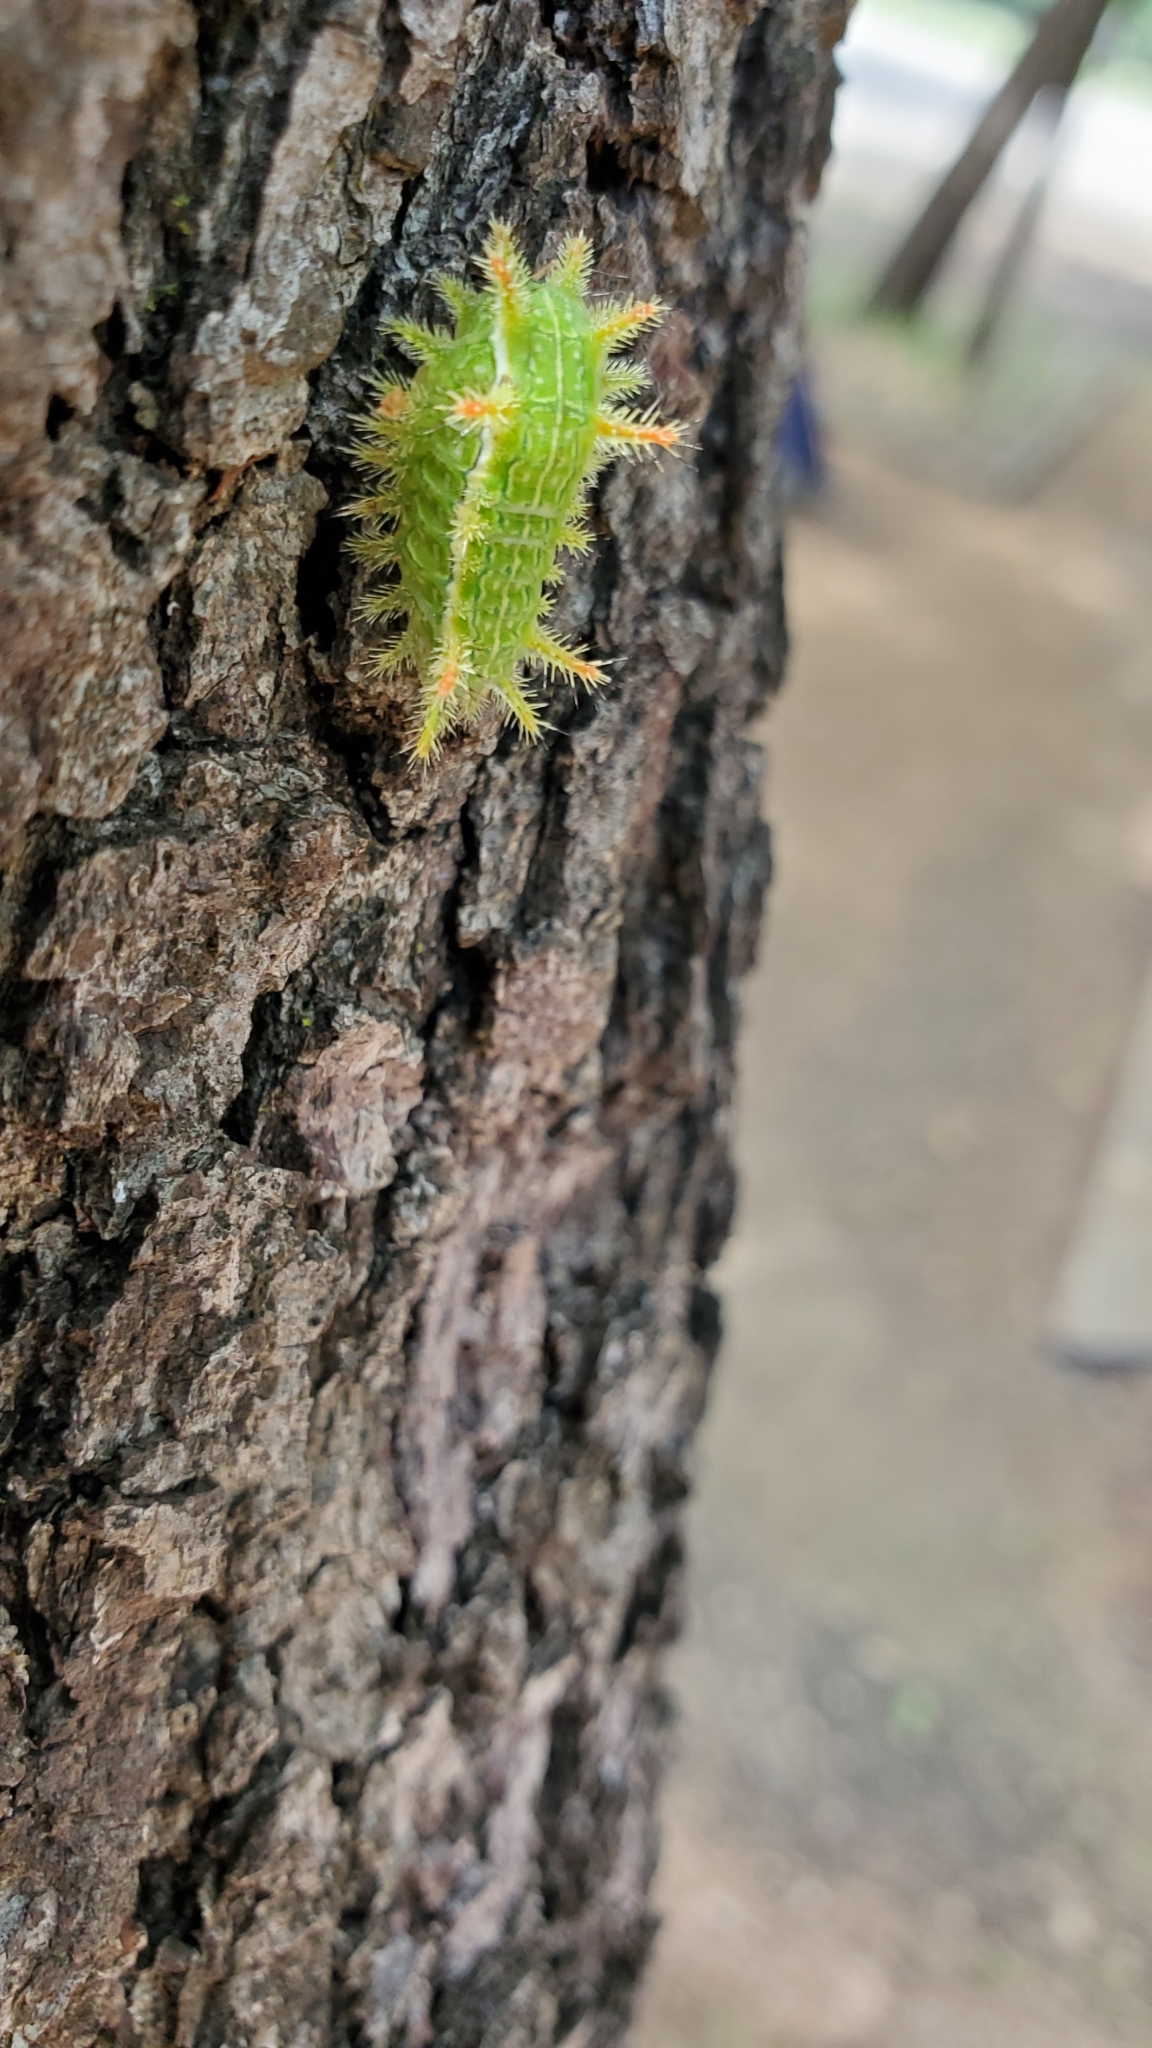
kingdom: Animalia
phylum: Arthropoda
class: Insecta
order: Lepidoptera
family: Limacodidae
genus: Euclea
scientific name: Euclea incisa
